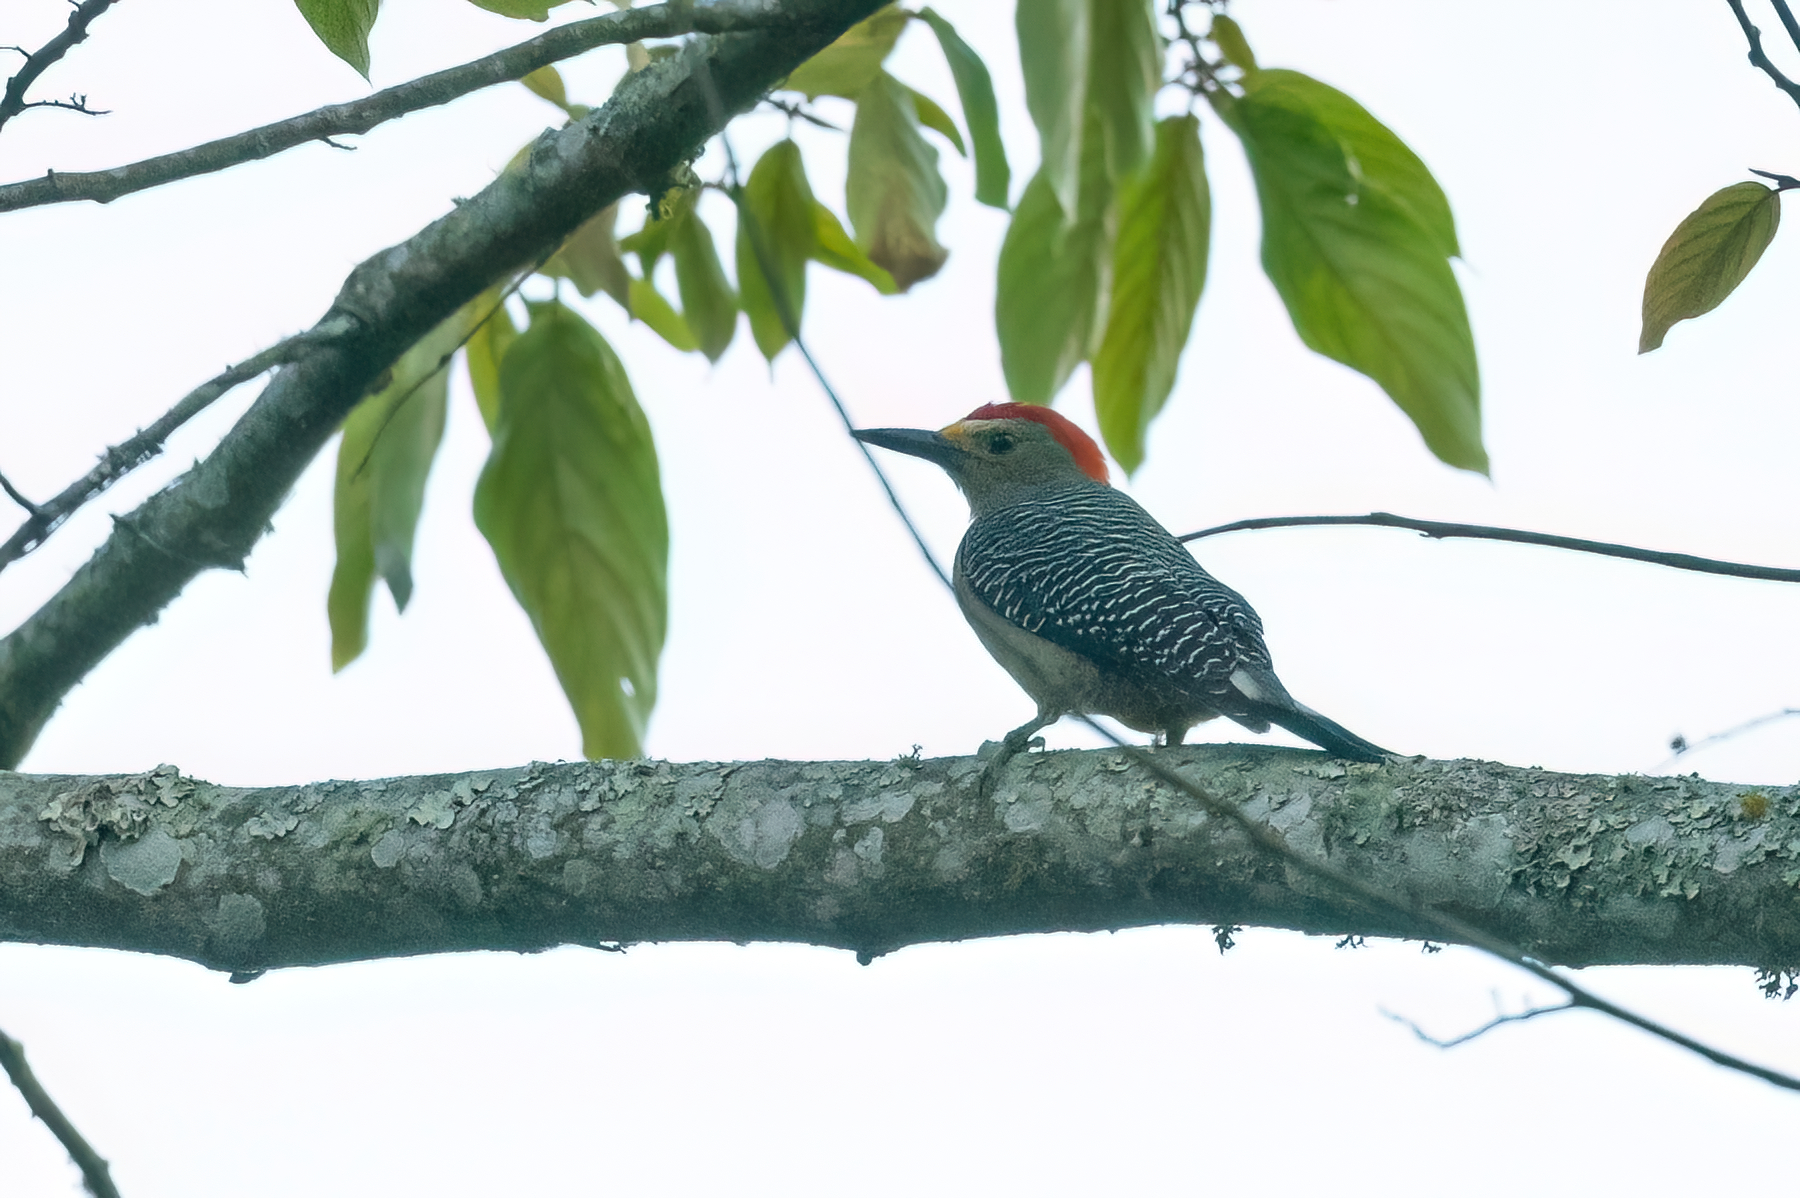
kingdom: Animalia
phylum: Chordata
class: Aves
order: Piciformes
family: Picidae
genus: Melanerpes
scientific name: Melanerpes aurifrons
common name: Golden-fronted woodpecker
